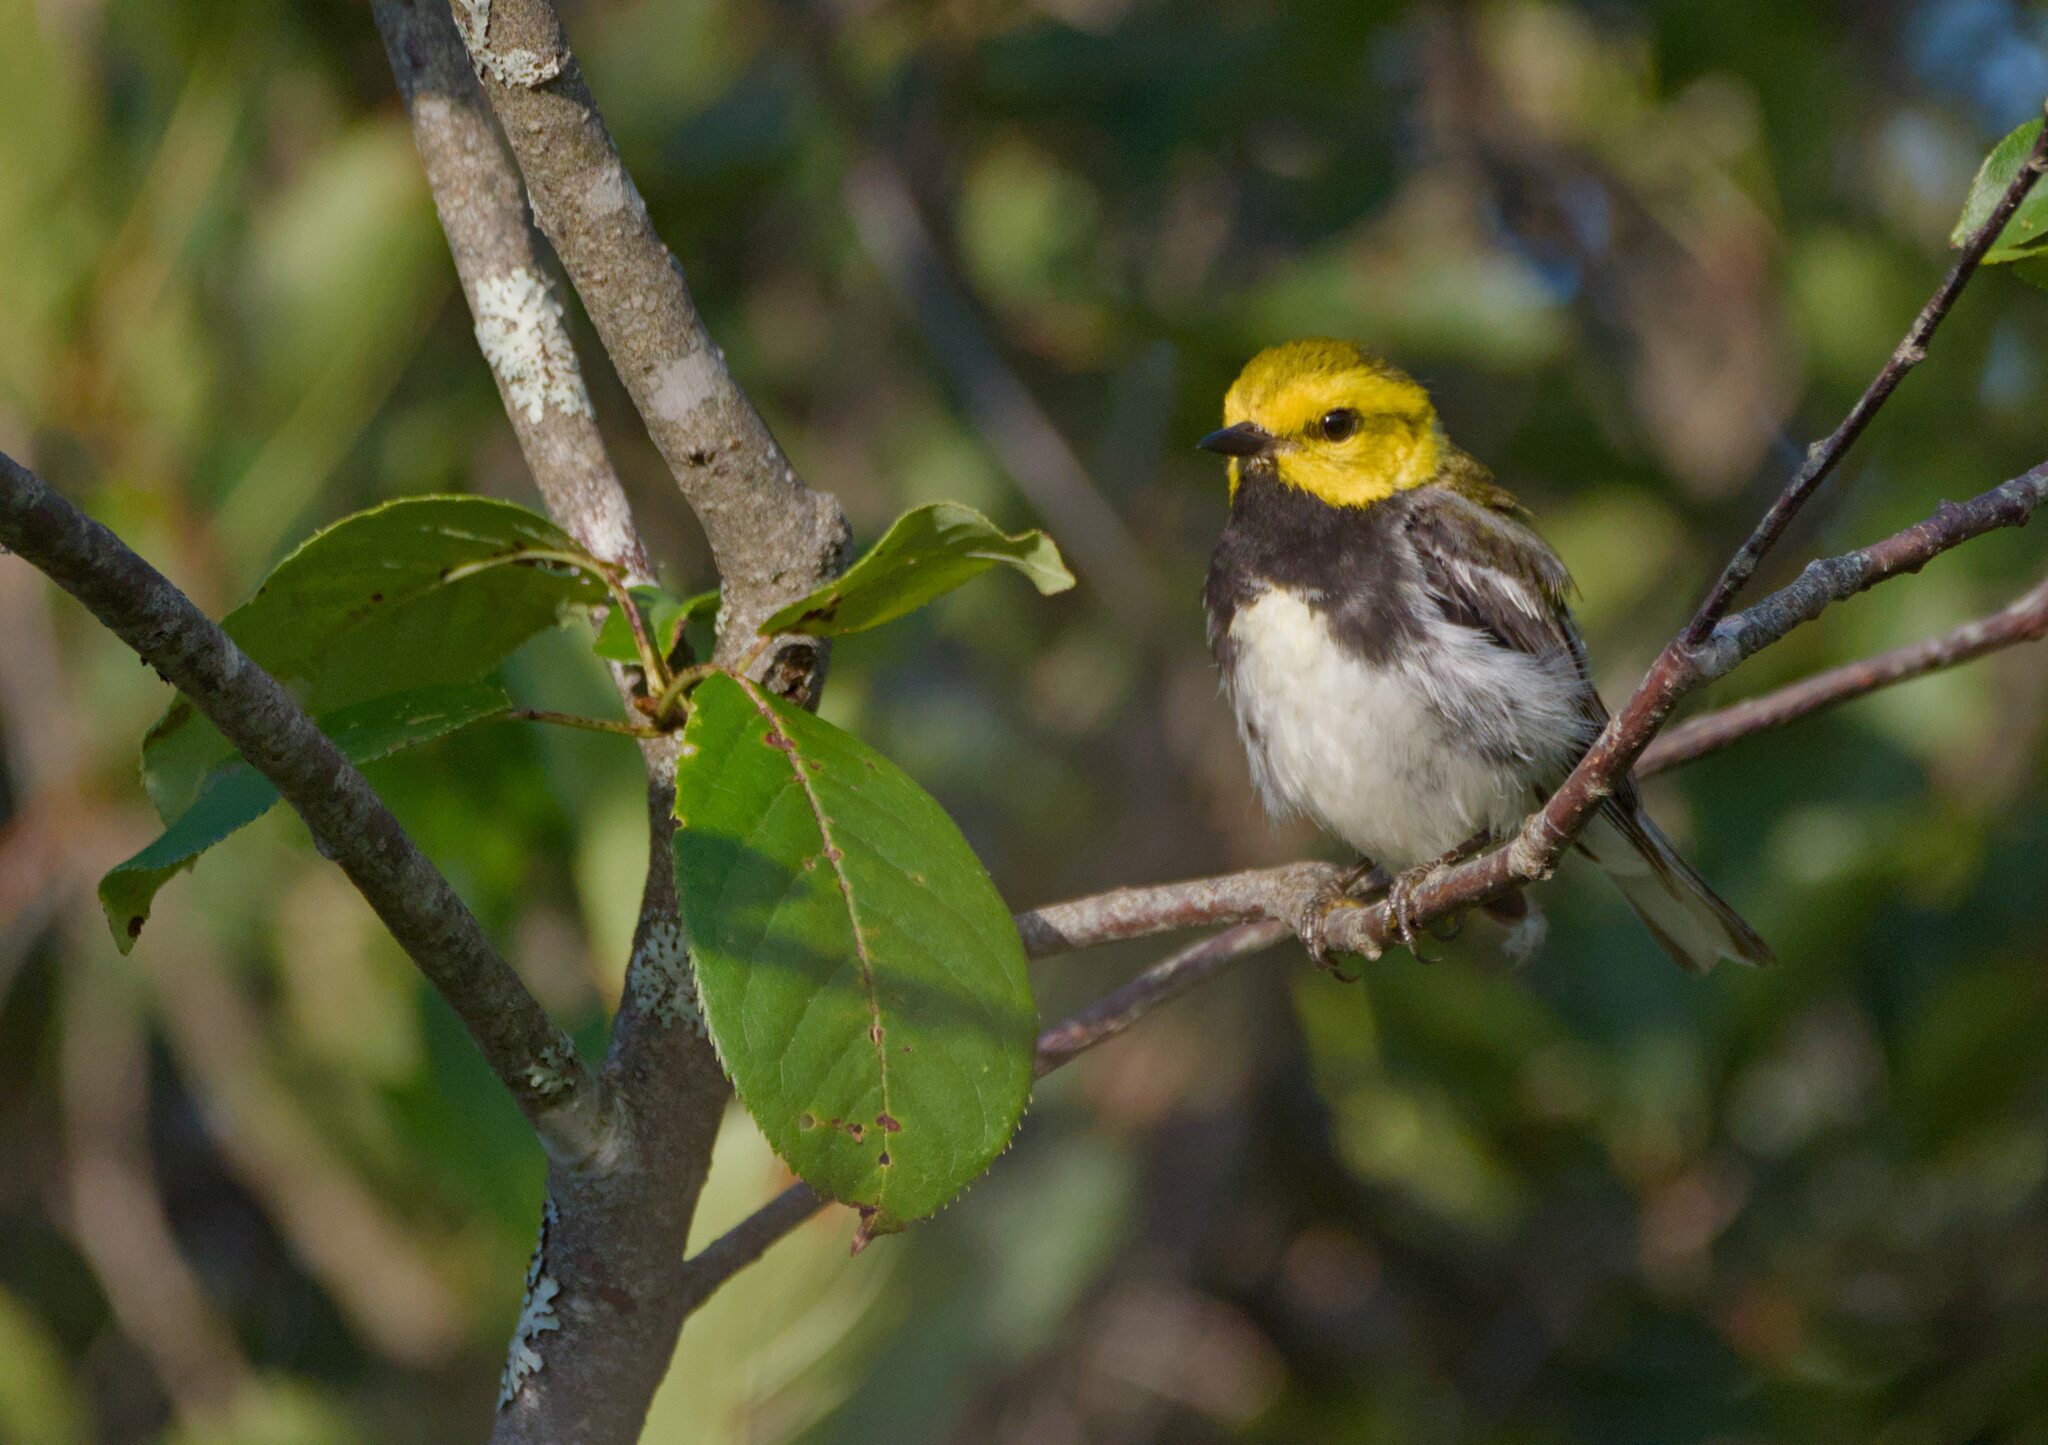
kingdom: Animalia
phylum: Chordata
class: Aves
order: Passeriformes
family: Parulidae
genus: Setophaga
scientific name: Setophaga virens
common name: Black-throated green warbler
